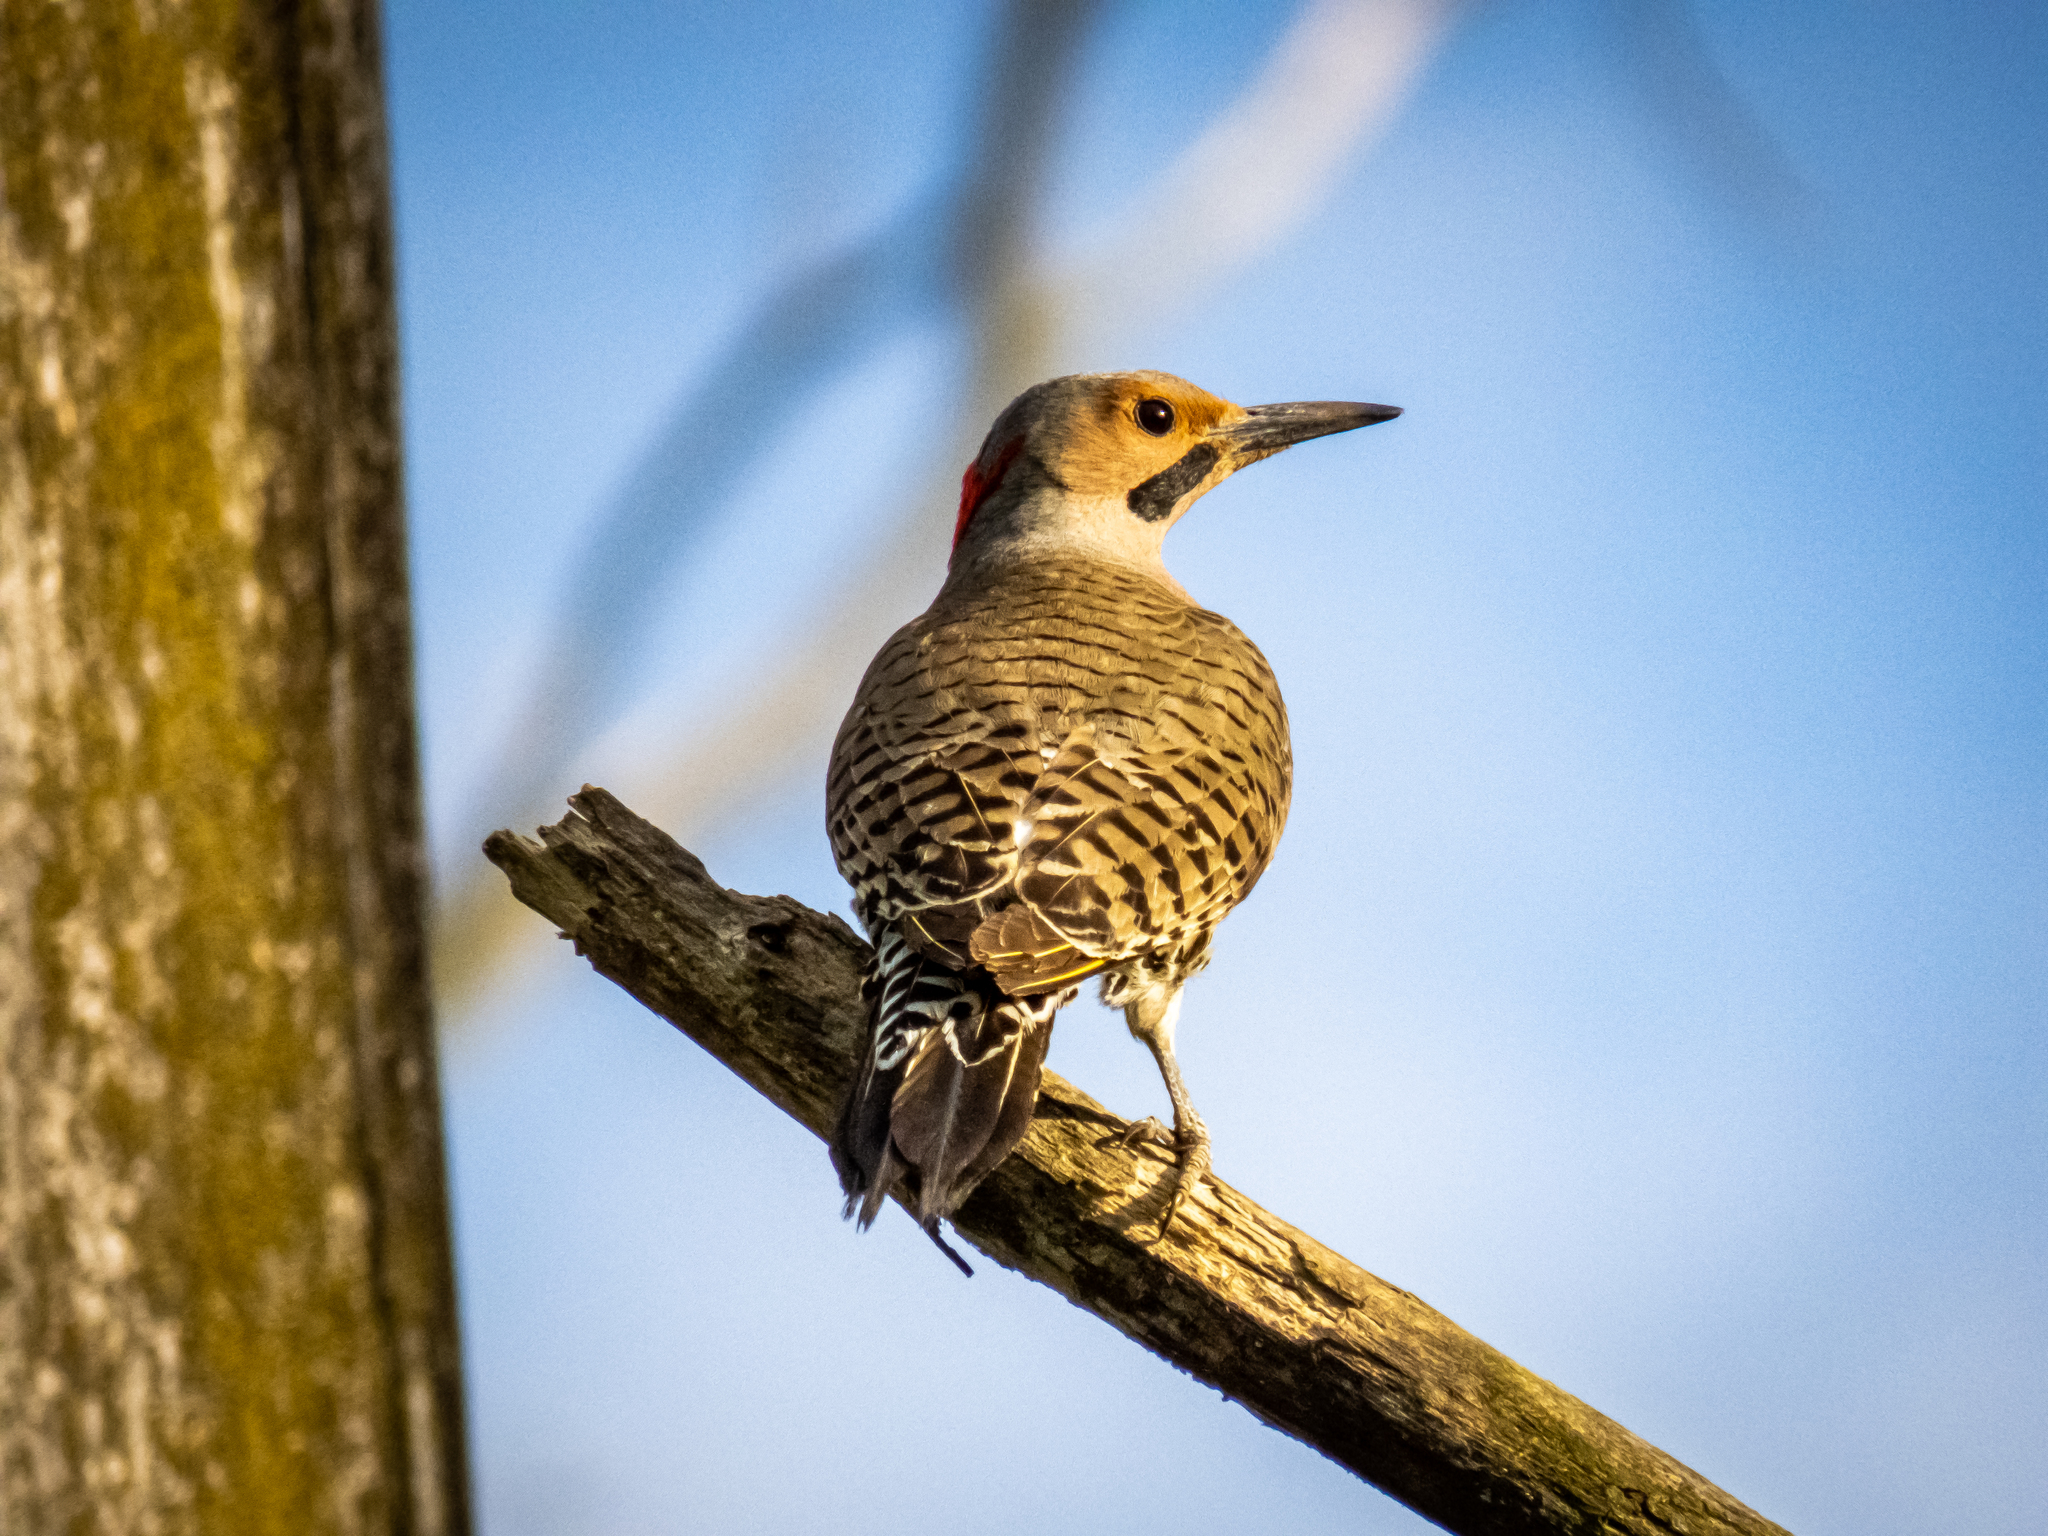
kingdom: Animalia
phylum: Chordata
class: Aves
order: Piciformes
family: Picidae
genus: Colaptes
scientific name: Colaptes auratus
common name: Northern flicker
